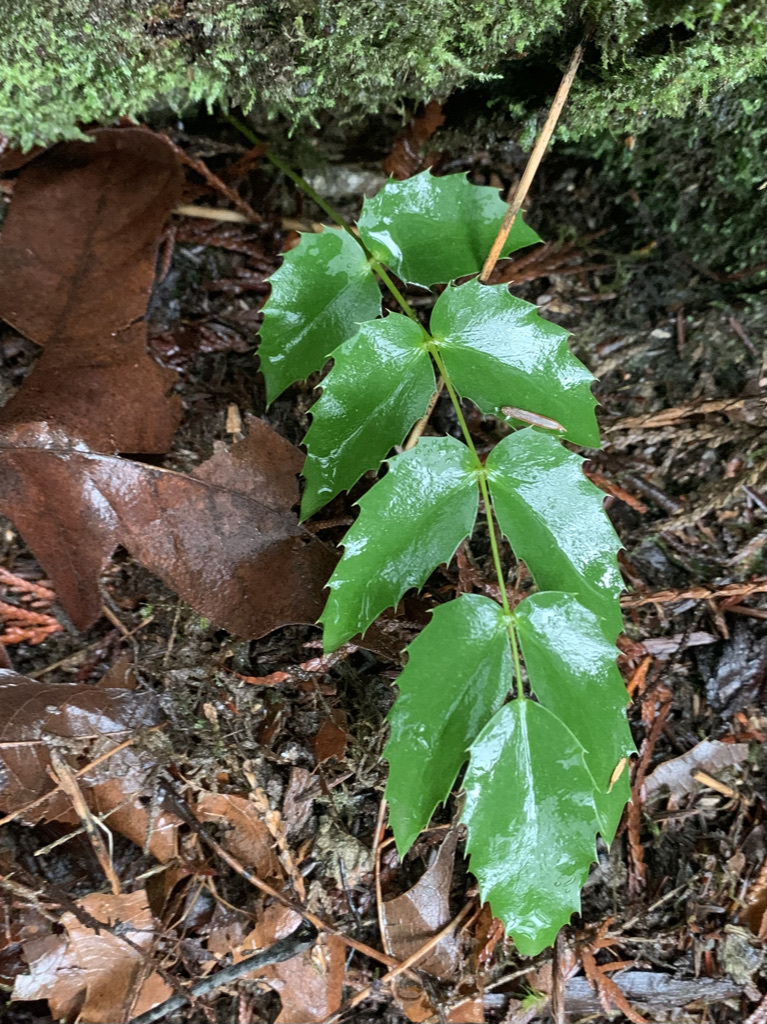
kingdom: Plantae
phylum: Tracheophyta
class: Magnoliopsida
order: Ranunculales
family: Berberidaceae
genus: Mahonia
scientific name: Mahonia nervosa
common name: Cascade oregon-grape
